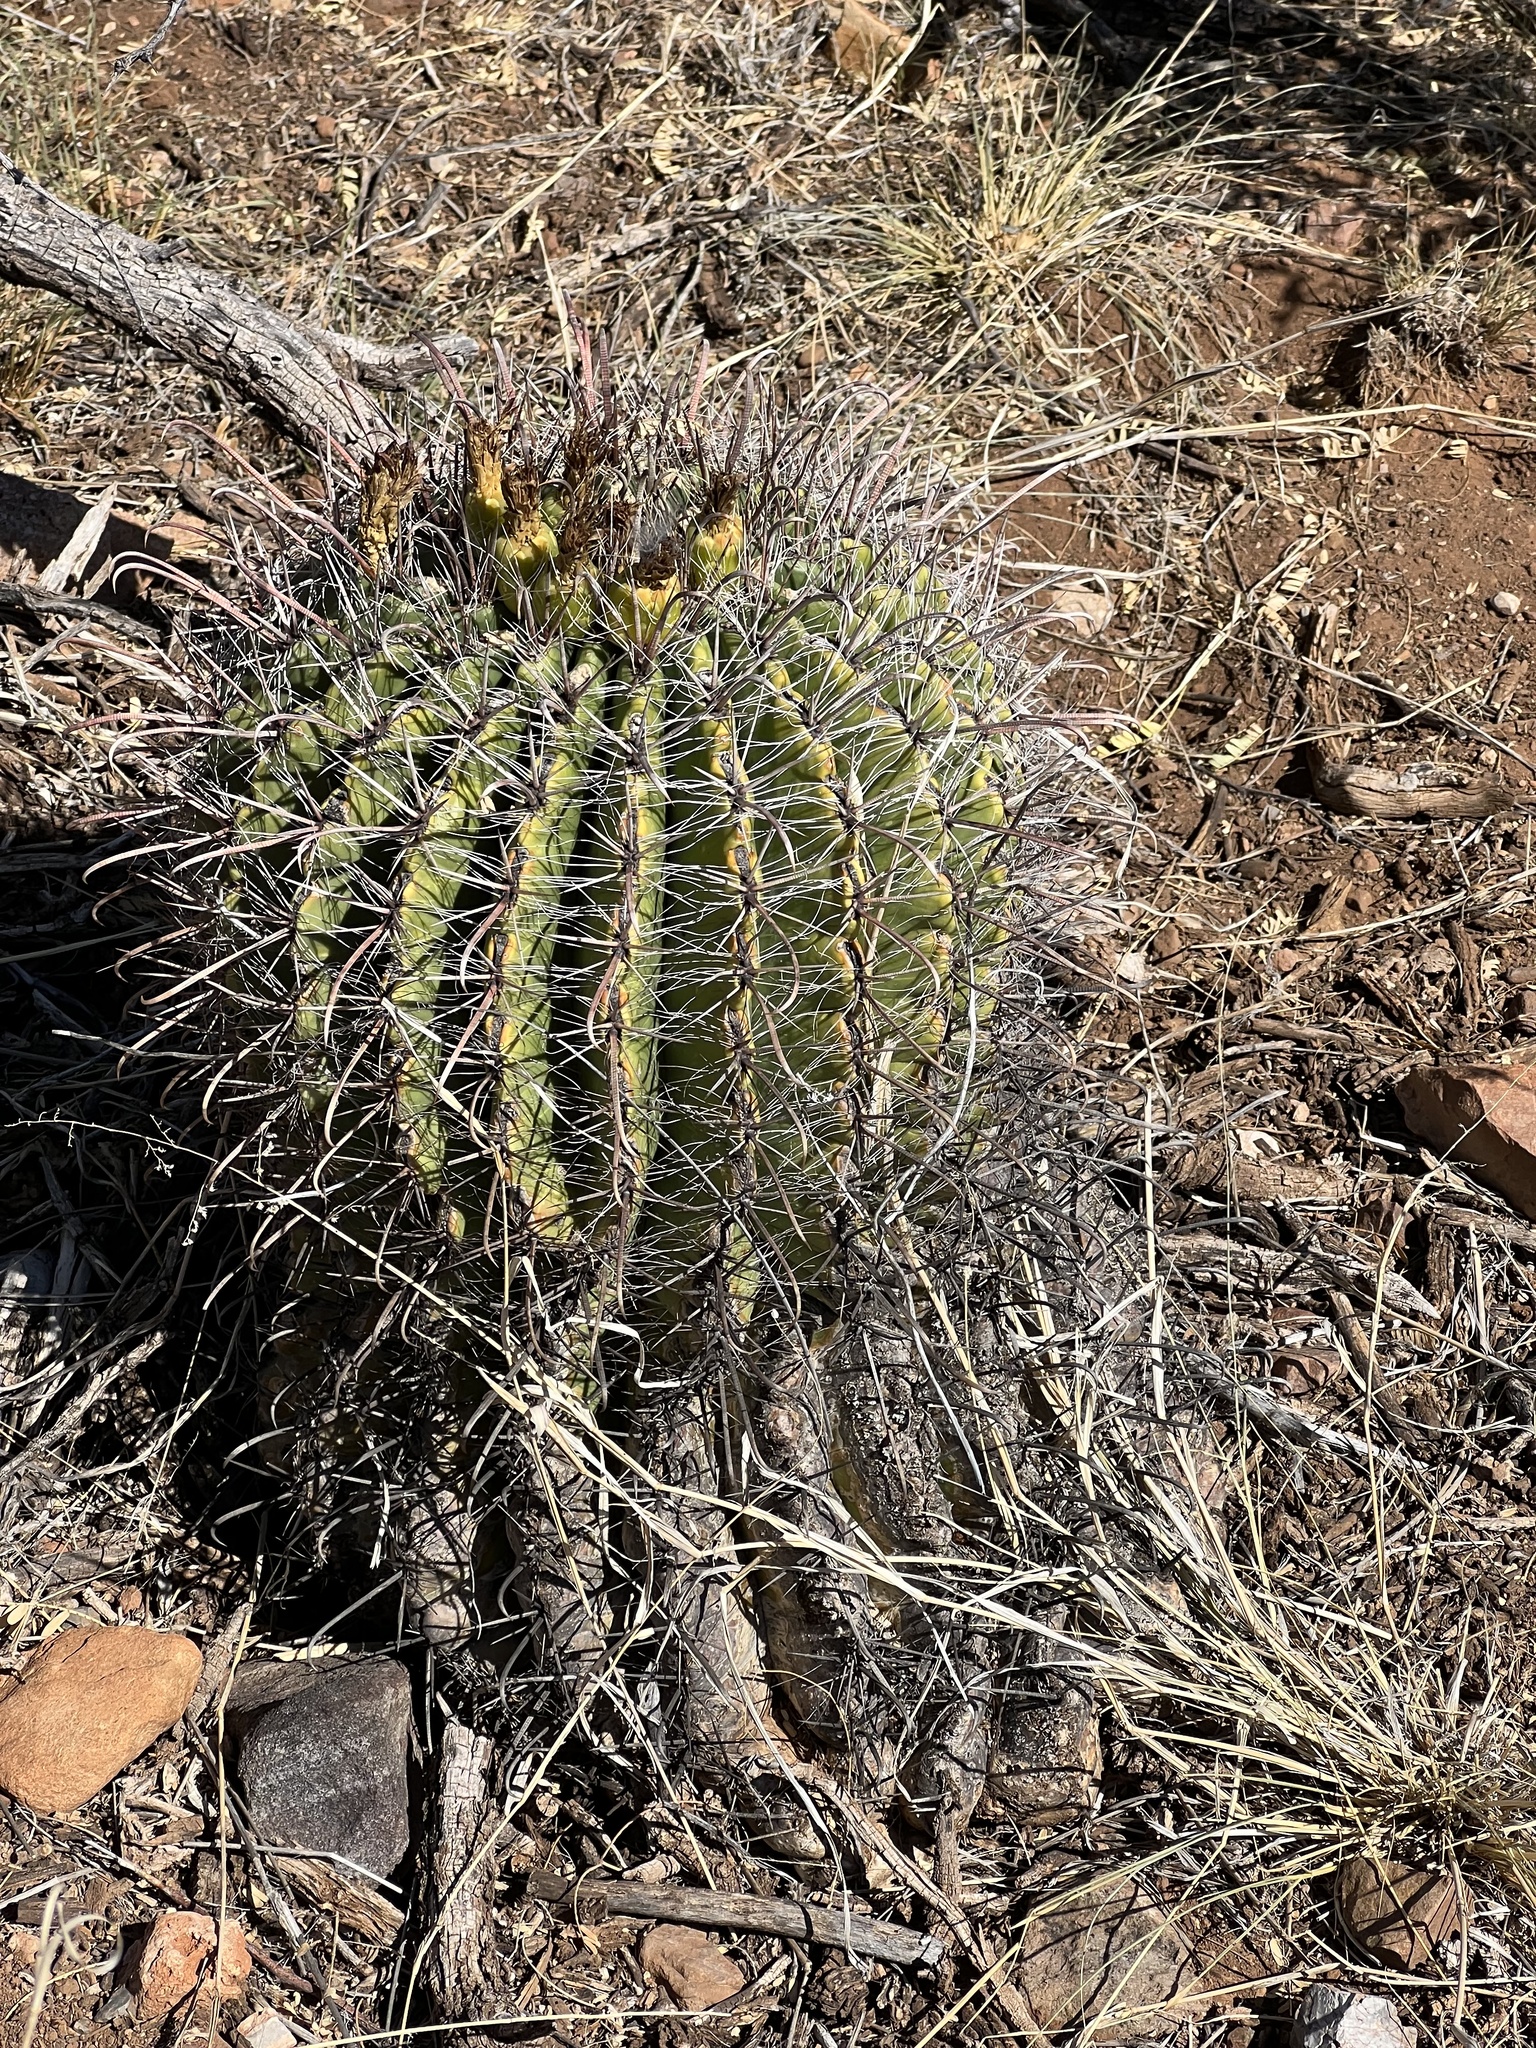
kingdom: Plantae
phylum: Tracheophyta
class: Magnoliopsida
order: Caryophyllales
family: Cactaceae
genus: Ferocactus
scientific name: Ferocactus wislizeni
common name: Candy barrel cactus
